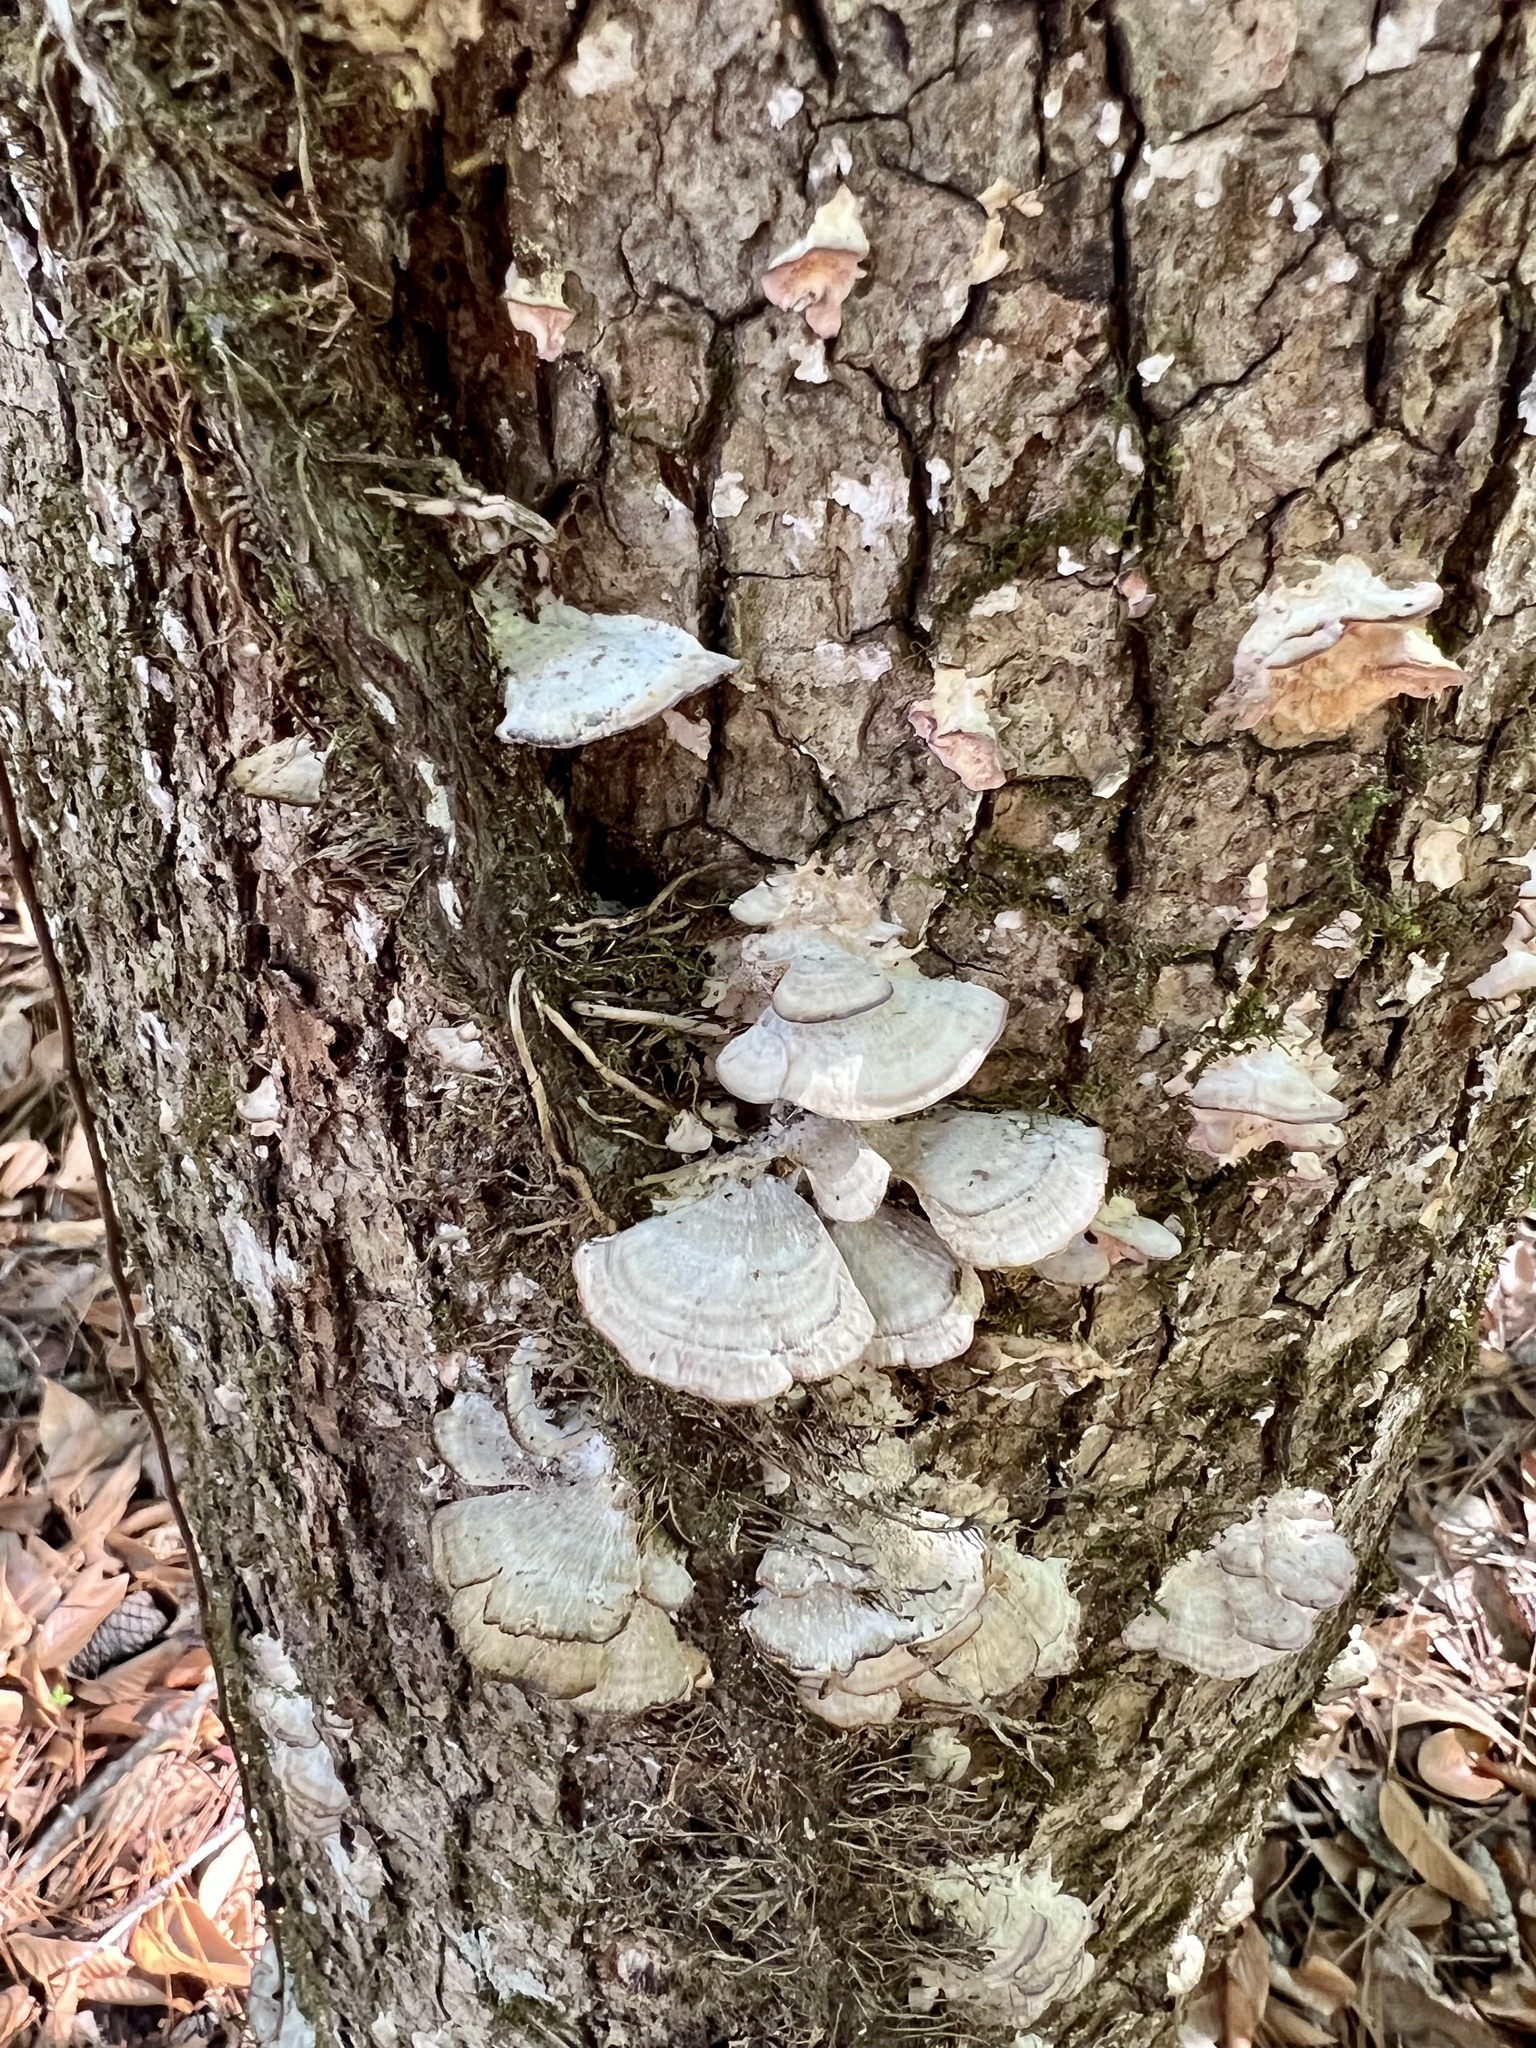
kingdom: Fungi
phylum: Basidiomycota
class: Agaricomycetes
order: Hymenochaetales
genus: Trichaptum
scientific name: Trichaptum biforme
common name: Violet-toothed polypore
